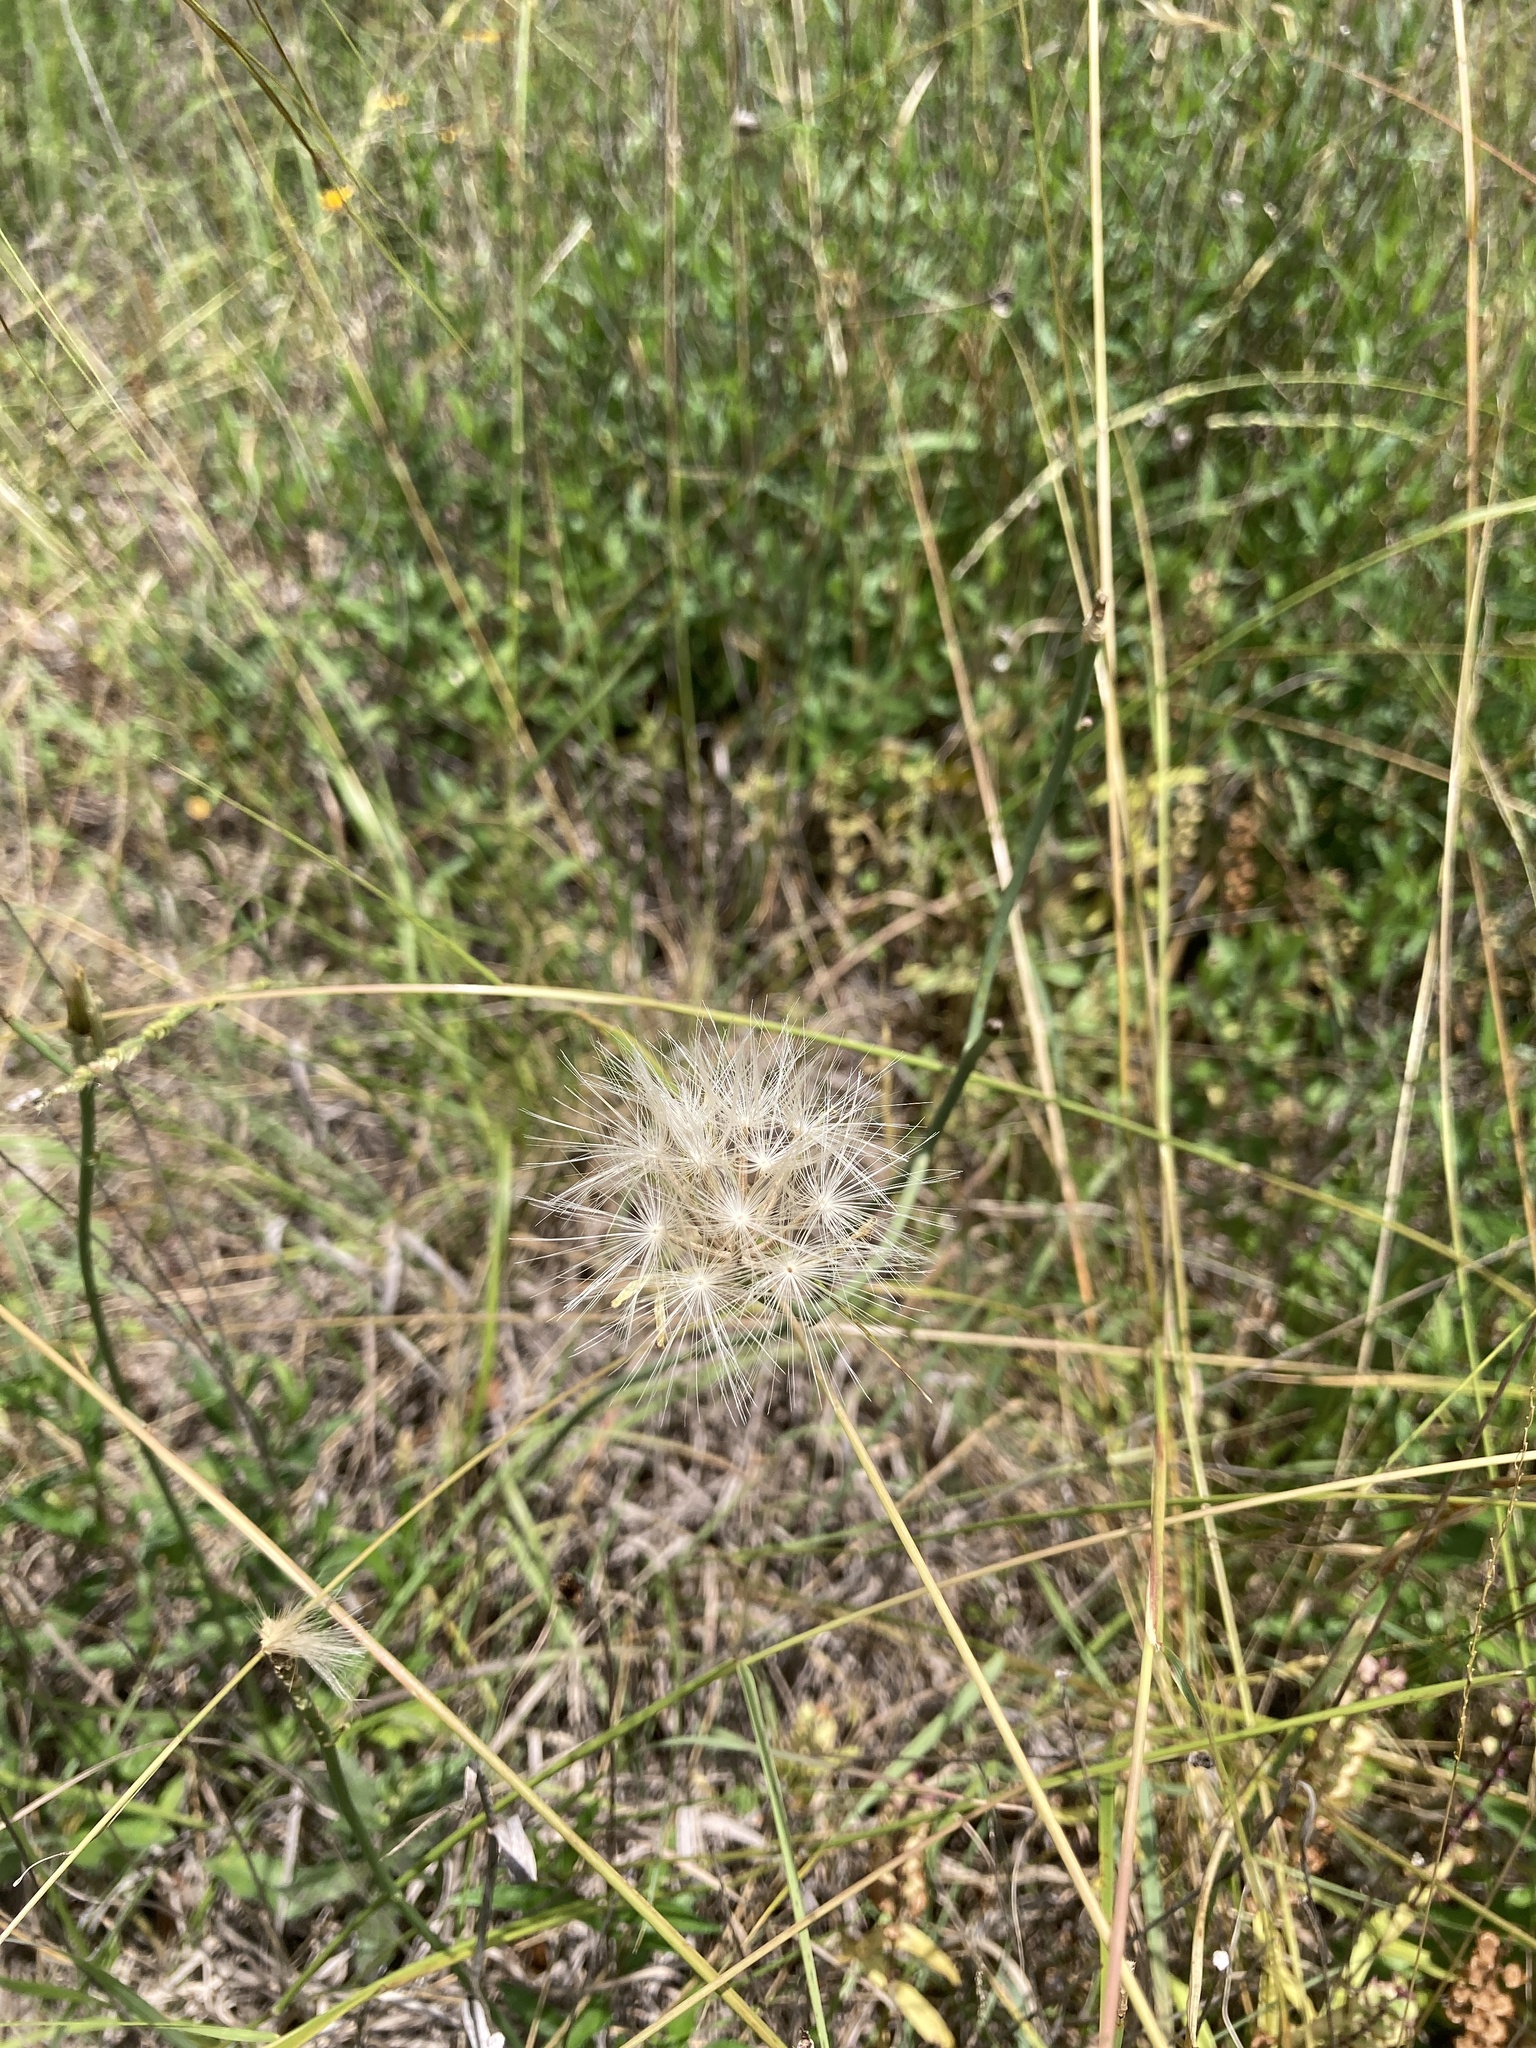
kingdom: Plantae
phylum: Tracheophyta
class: Magnoliopsida
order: Asterales
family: Asteraceae
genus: Lygodesmia
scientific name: Lygodesmia texana
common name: Texas skeleton-plant
